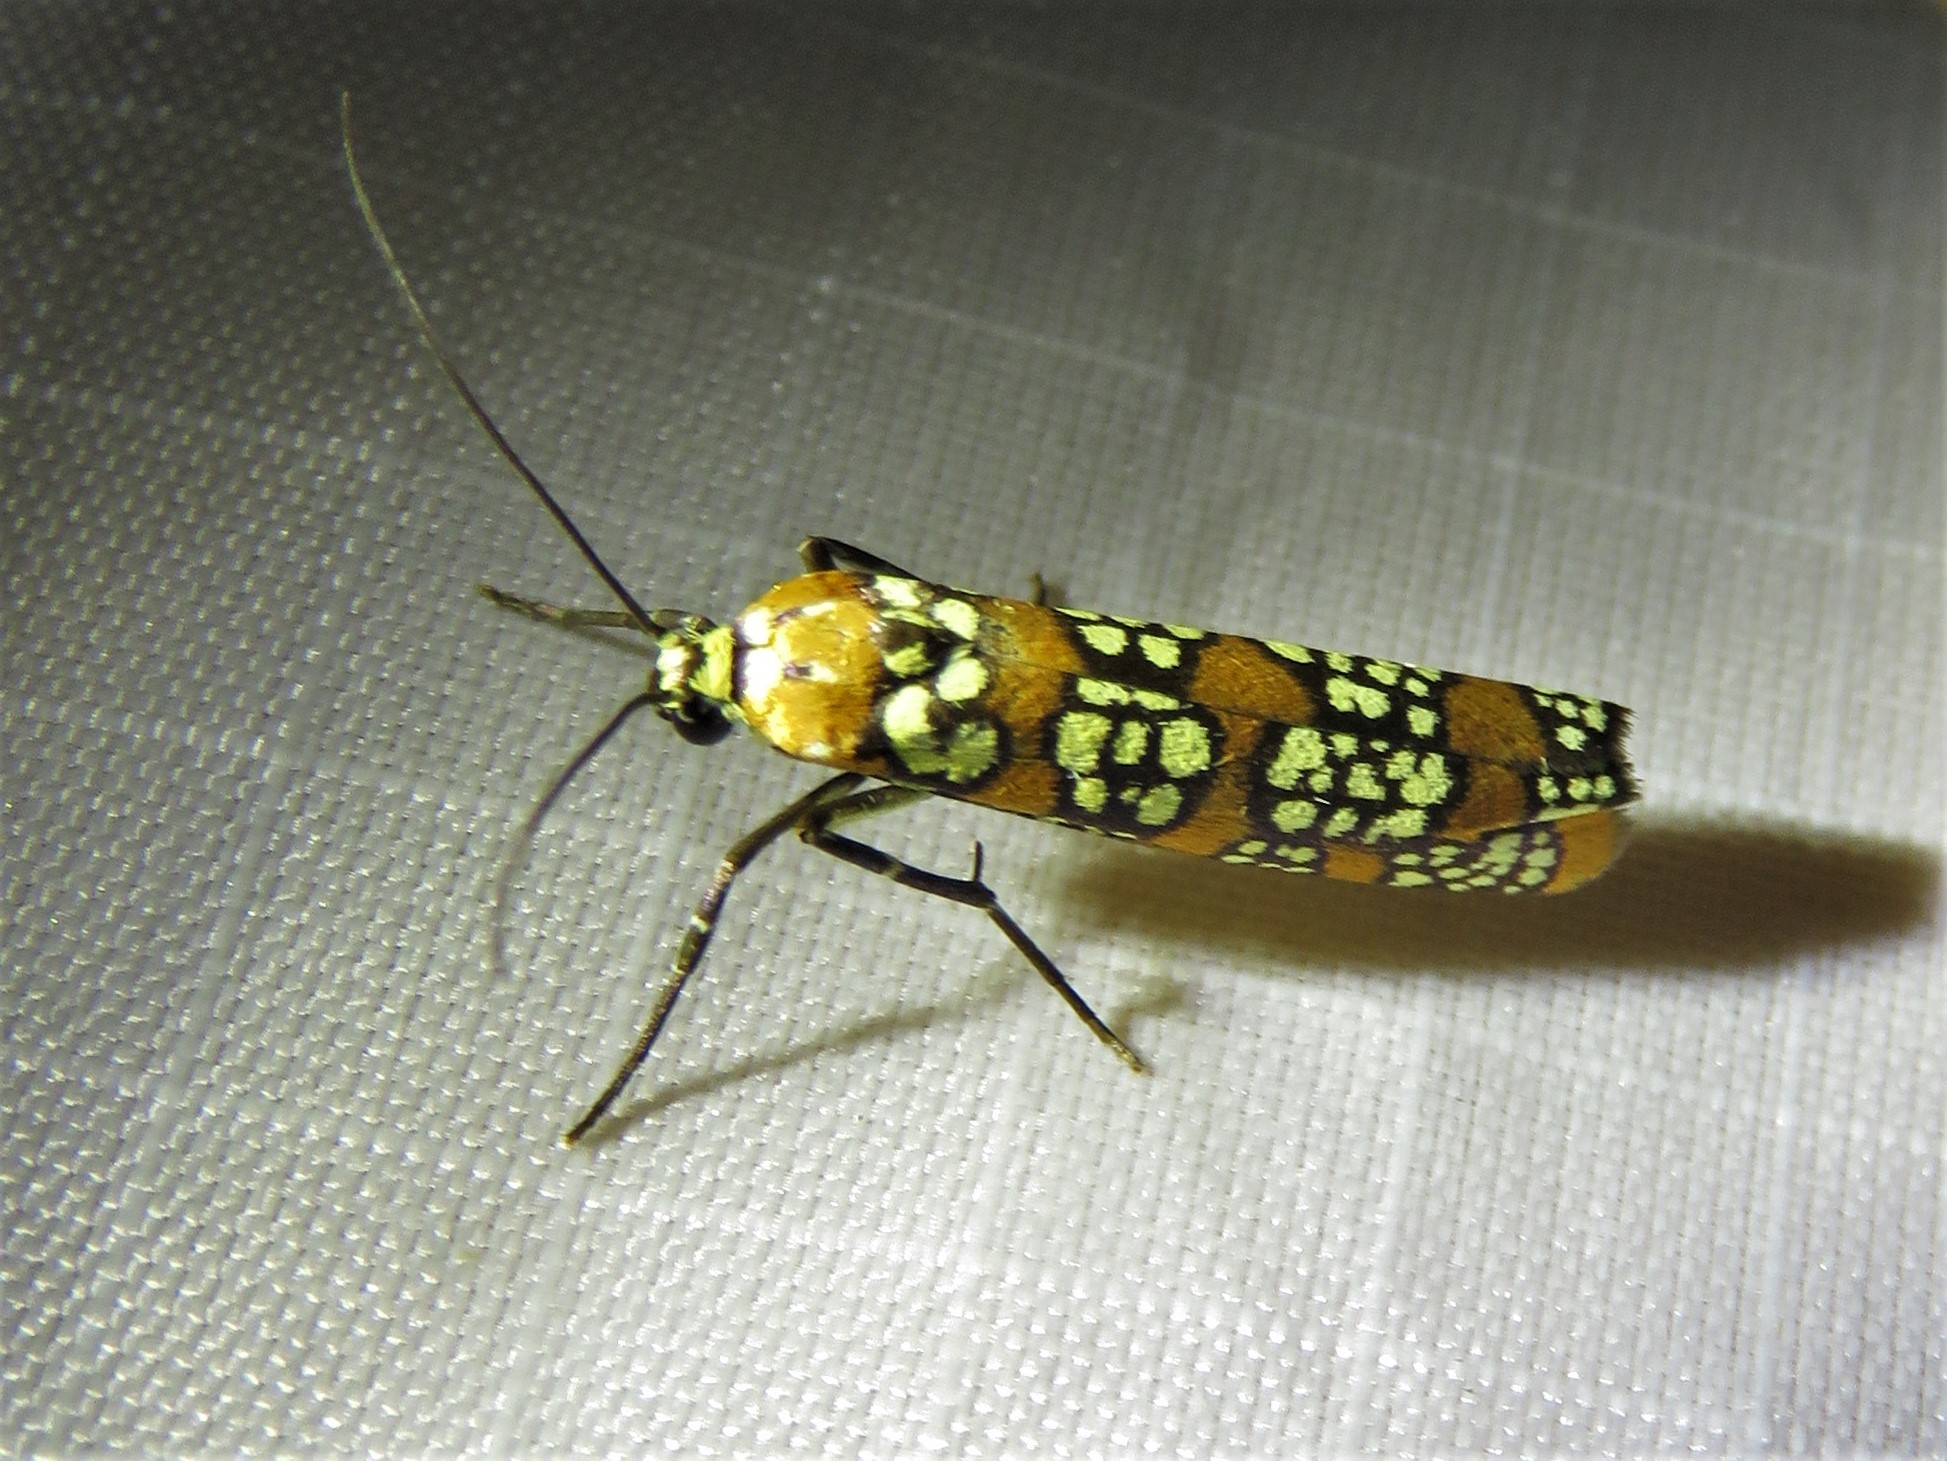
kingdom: Animalia
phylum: Arthropoda
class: Insecta
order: Lepidoptera
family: Attevidae
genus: Atteva
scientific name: Atteva punctella
